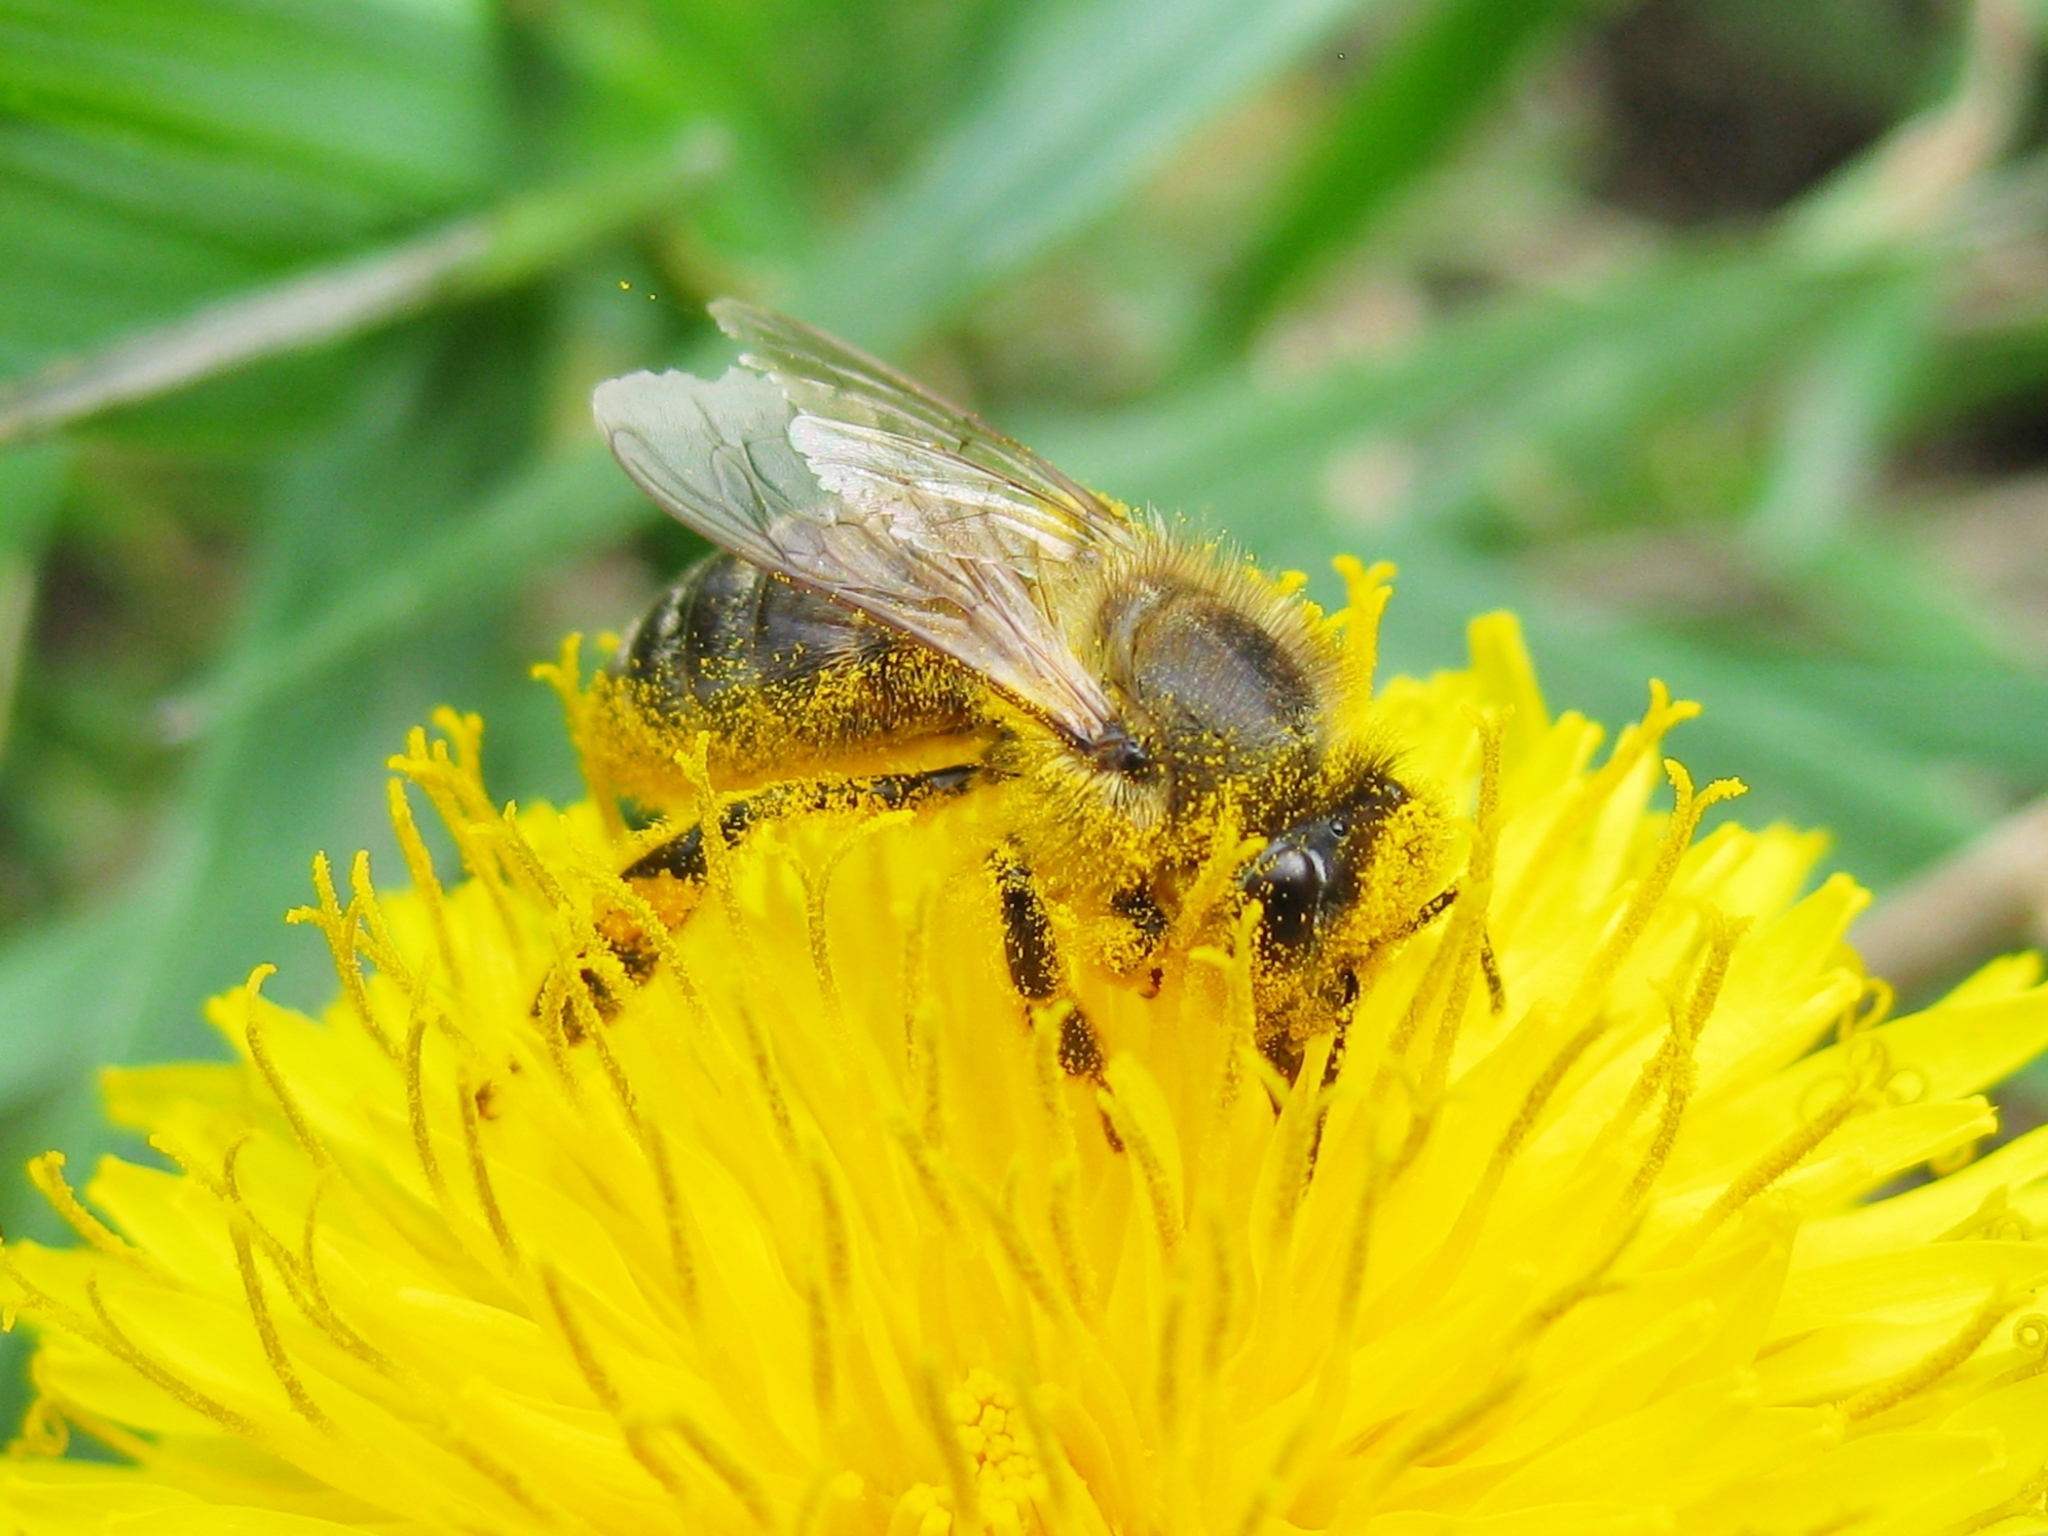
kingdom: Animalia
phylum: Arthropoda
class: Insecta
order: Hymenoptera
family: Apidae
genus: Apis
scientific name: Apis mellifera
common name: Honey bee
